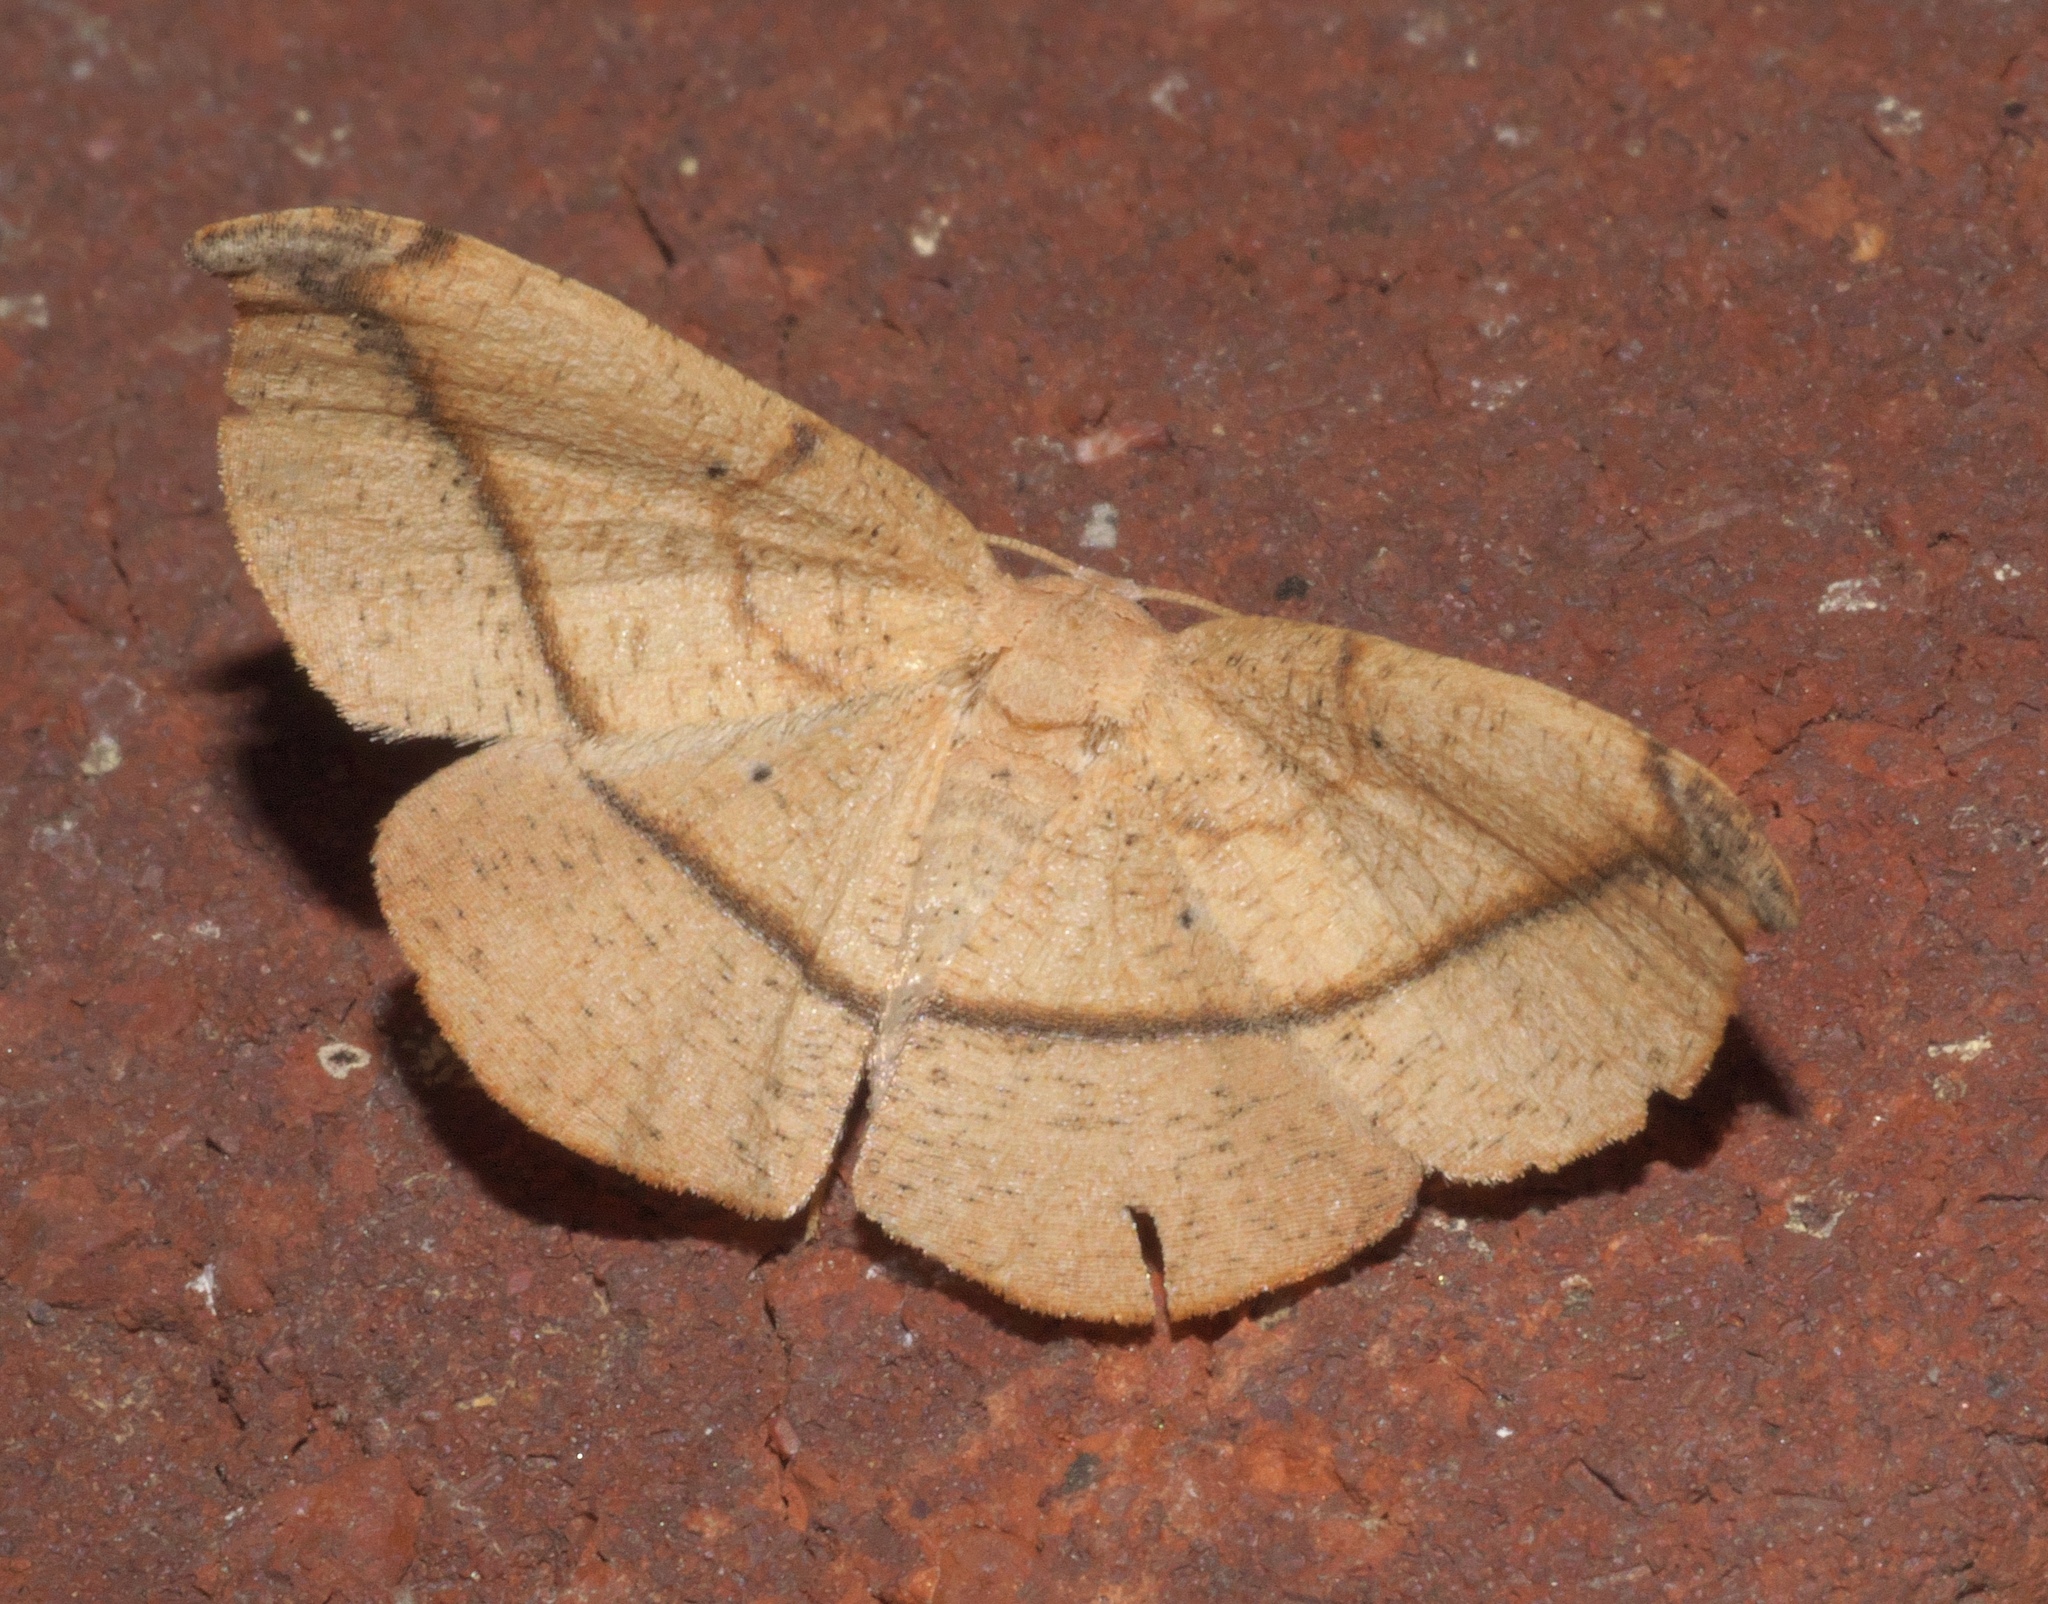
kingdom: Animalia
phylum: Arthropoda
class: Insecta
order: Lepidoptera
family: Geometridae
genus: Patalene
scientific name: Patalene olyzonaria
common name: Juniper geometer moth
